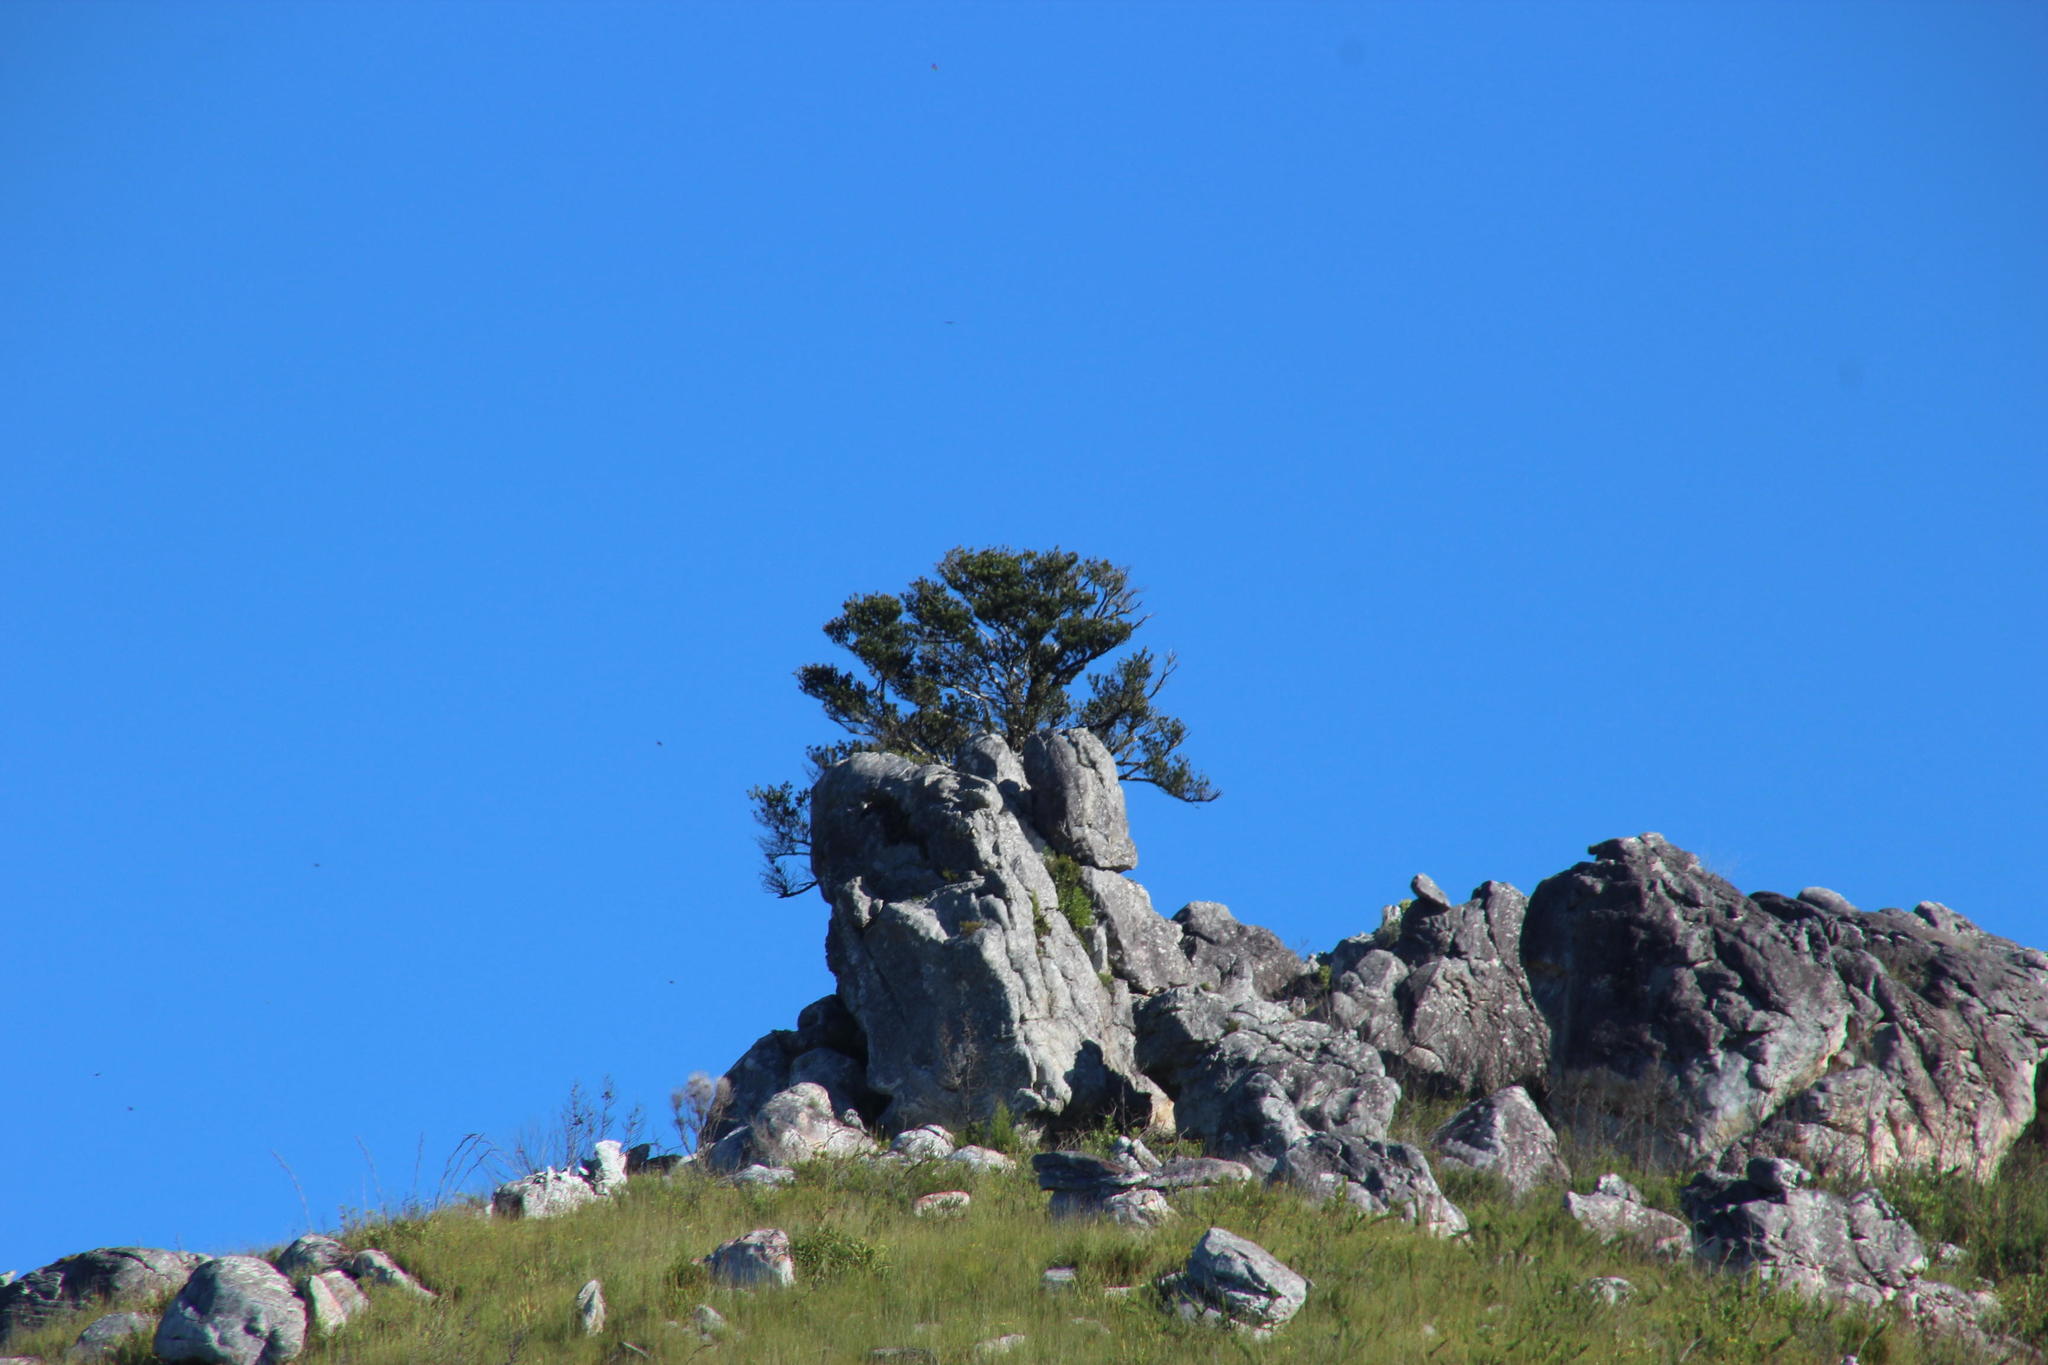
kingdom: Plantae
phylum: Tracheophyta
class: Pinopsida
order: Pinales
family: Podocarpaceae
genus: Podocarpus
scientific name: Podocarpus latifolius
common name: True yellowwood
